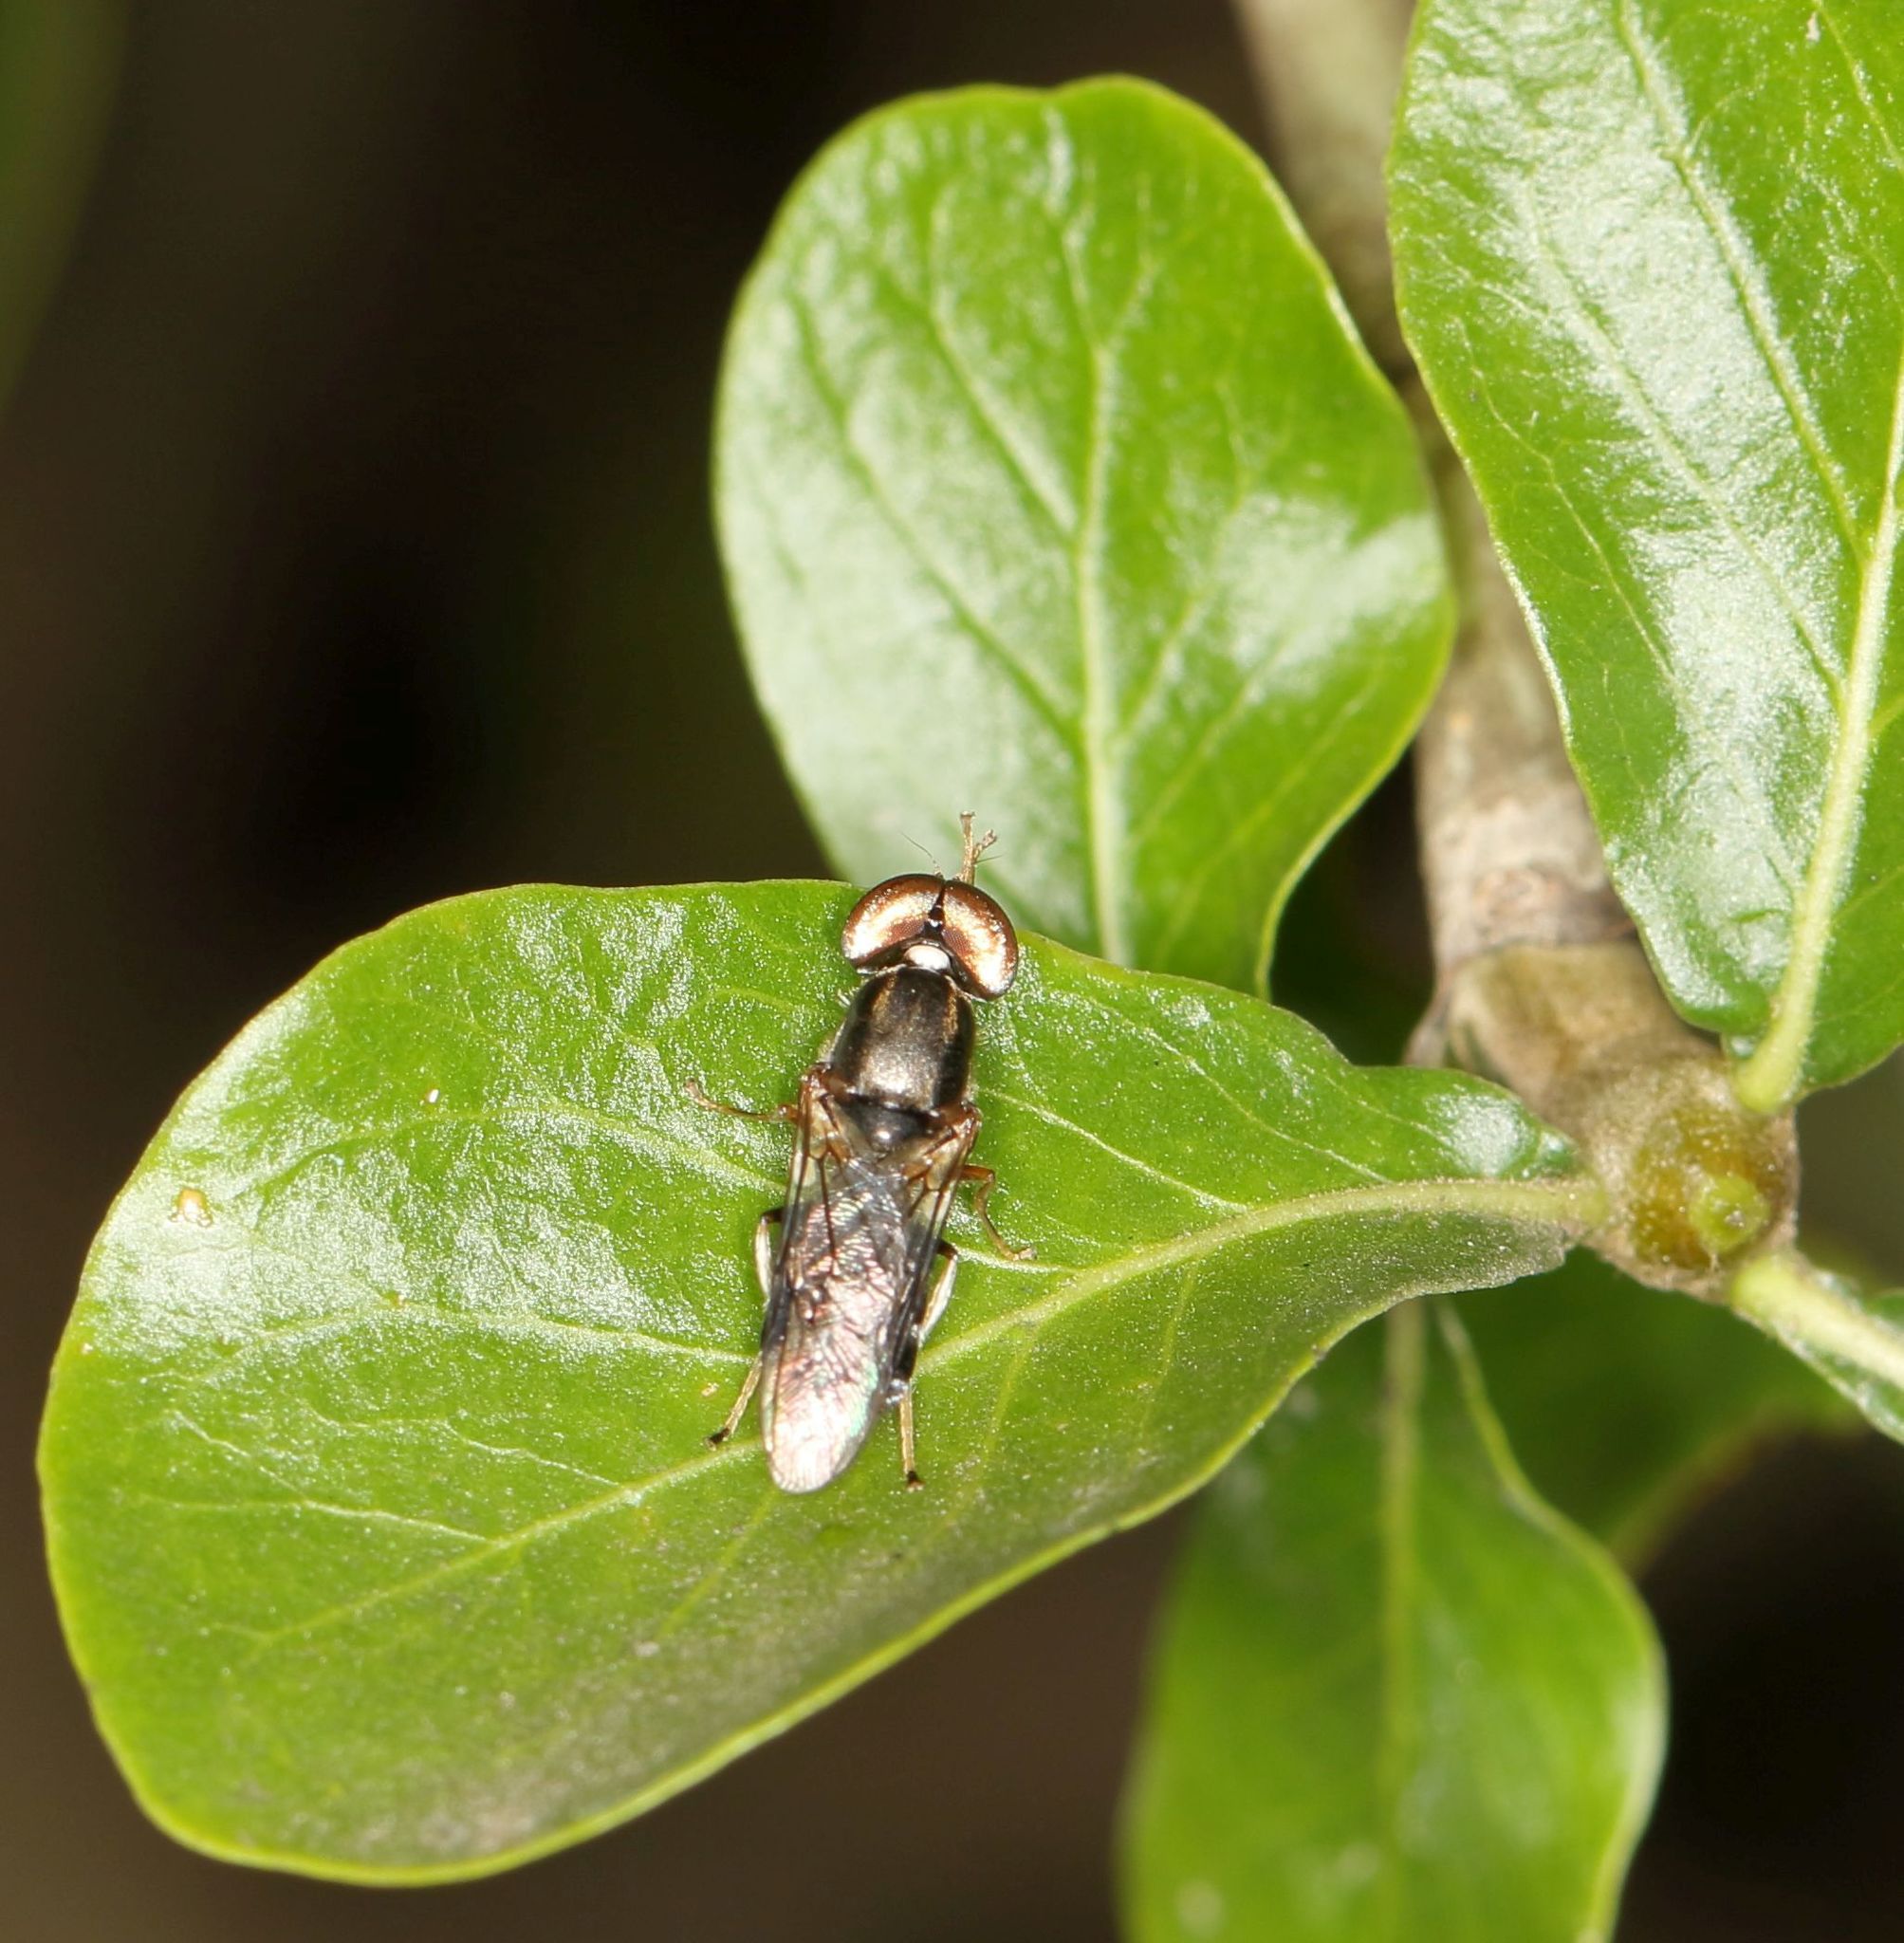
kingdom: Animalia
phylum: Arthropoda
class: Insecta
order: Diptera
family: Stratiomyidae
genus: Cephalochrysa
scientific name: Cephalochrysa calopa
